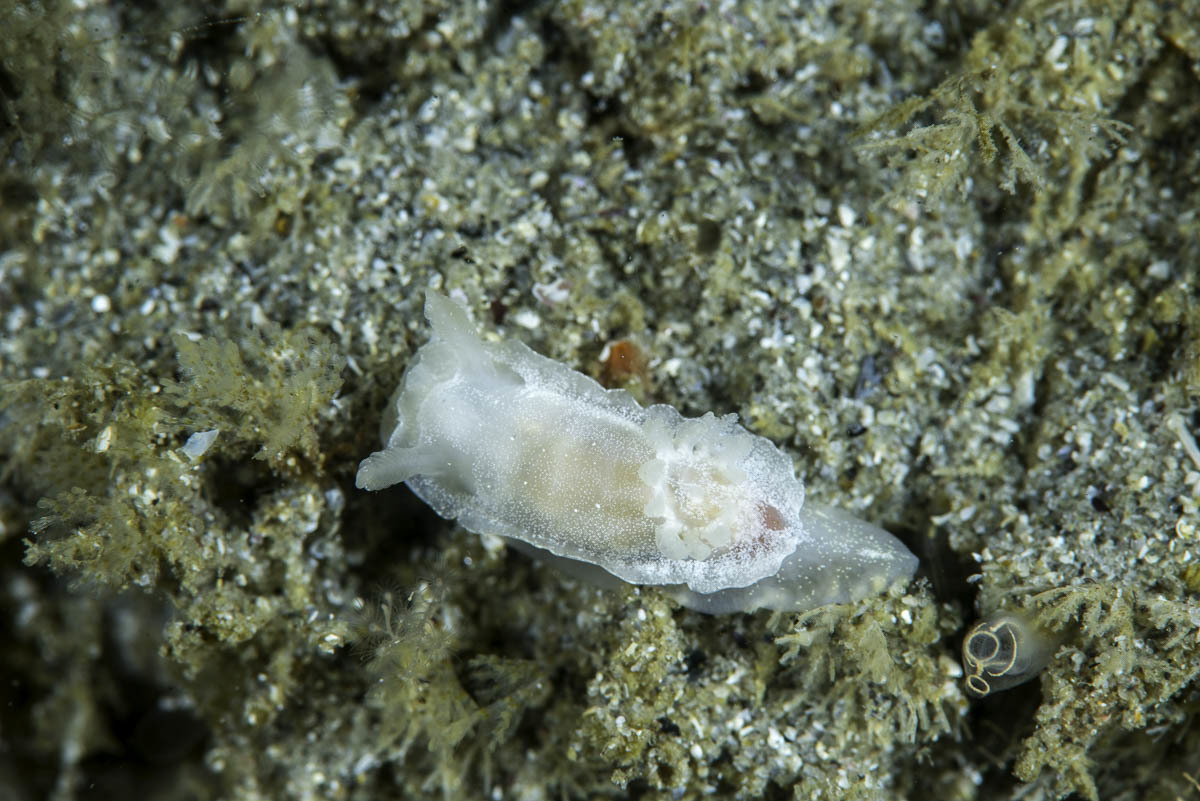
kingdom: Animalia
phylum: Mollusca
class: Gastropoda
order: Nudibranchia
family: Goniodorididae
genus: Okenia
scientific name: Okenia
